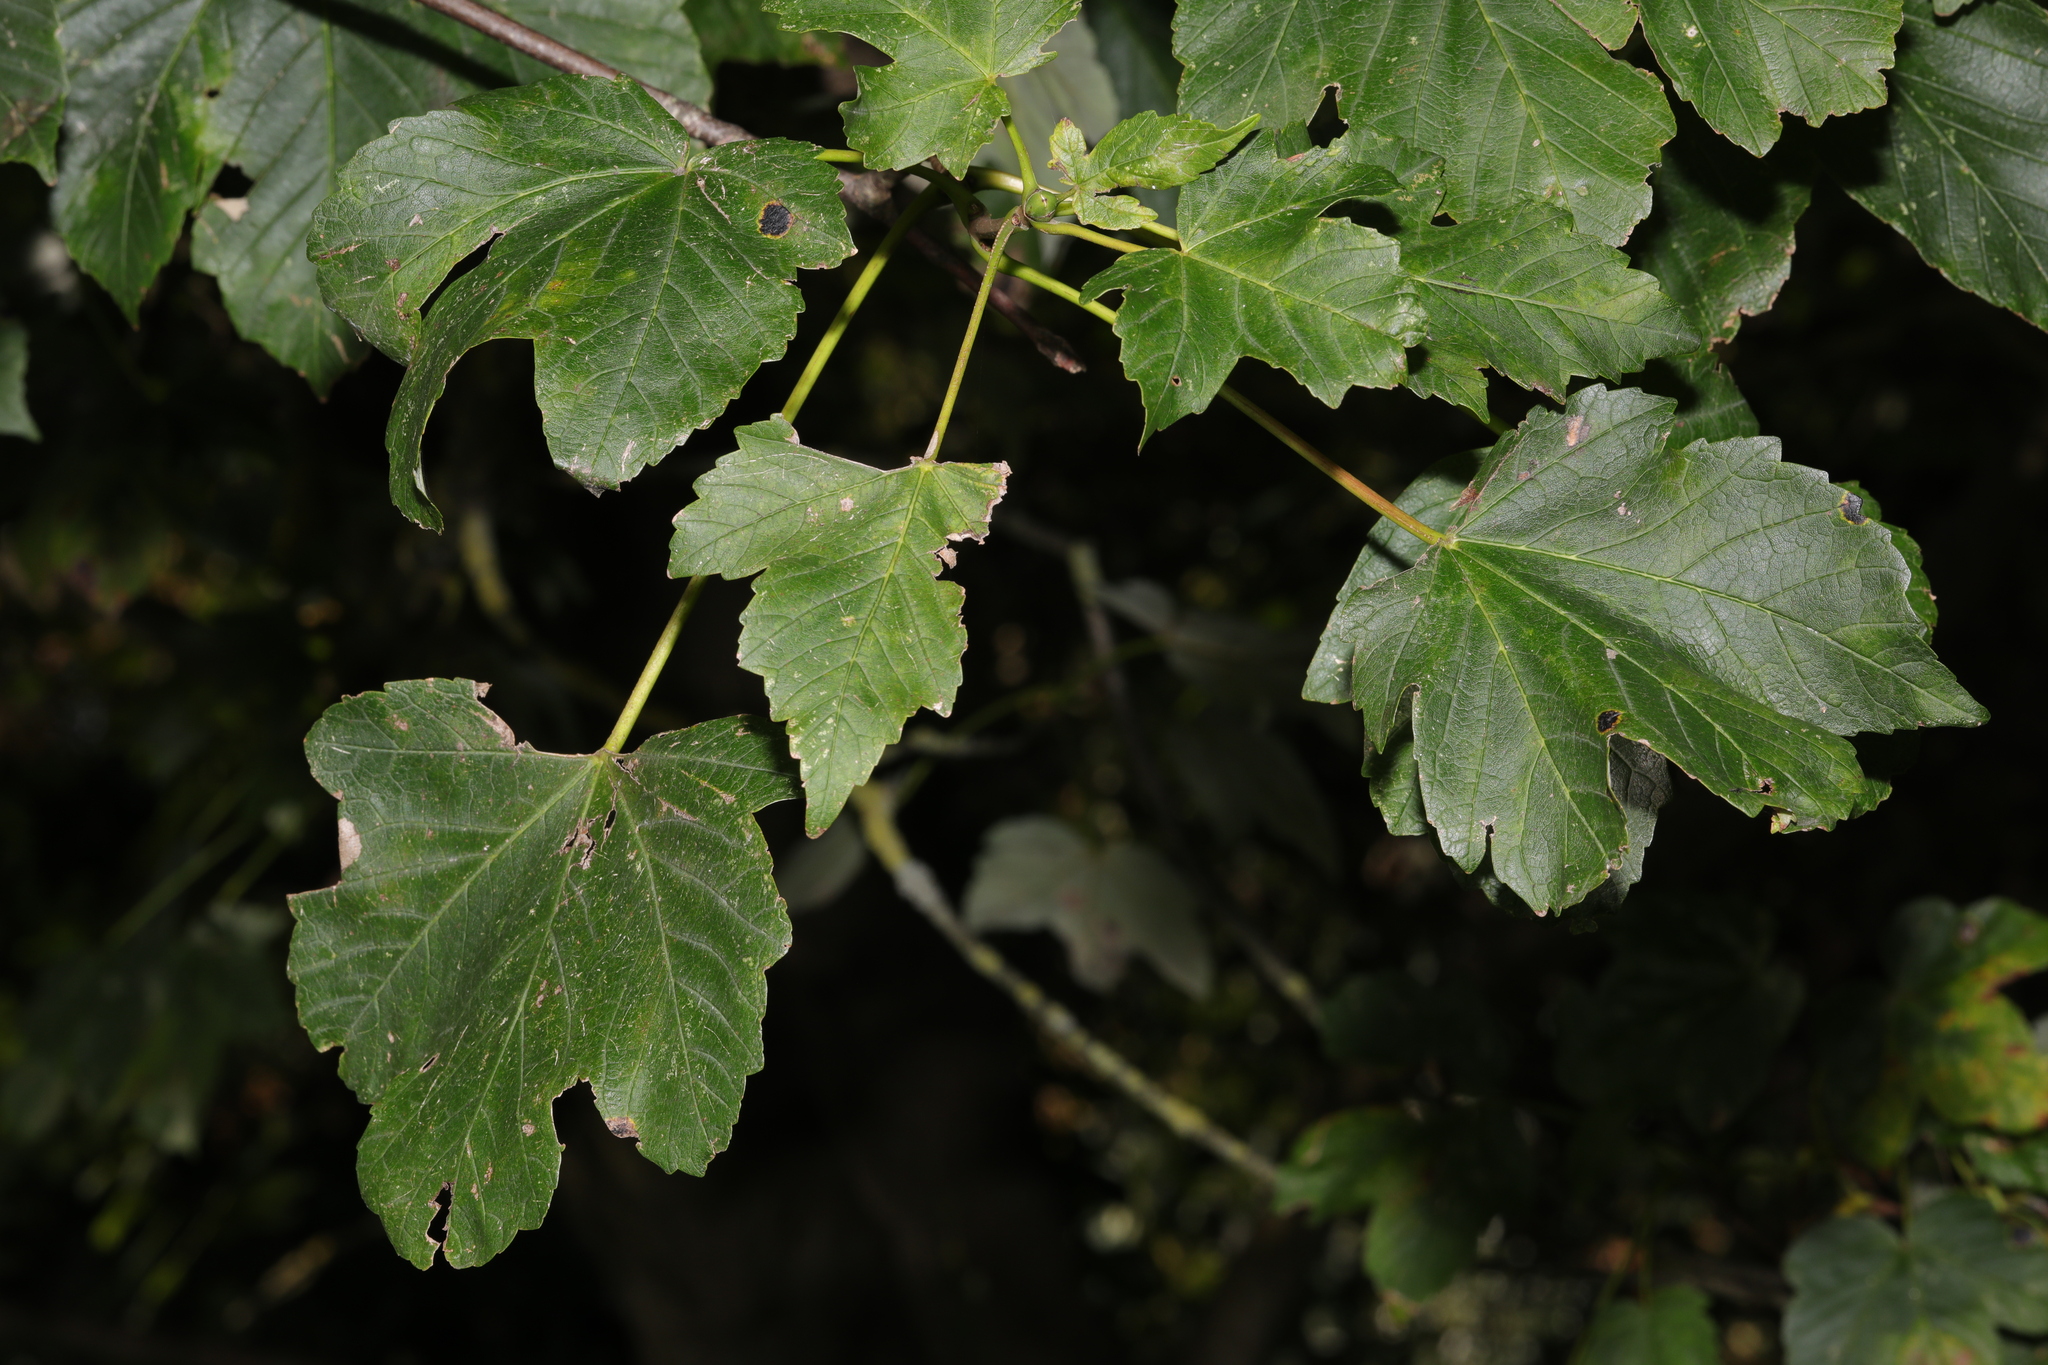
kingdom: Plantae
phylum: Tracheophyta
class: Magnoliopsida
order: Sapindales
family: Sapindaceae
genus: Acer
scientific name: Acer pseudoplatanus
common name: Sycamore
